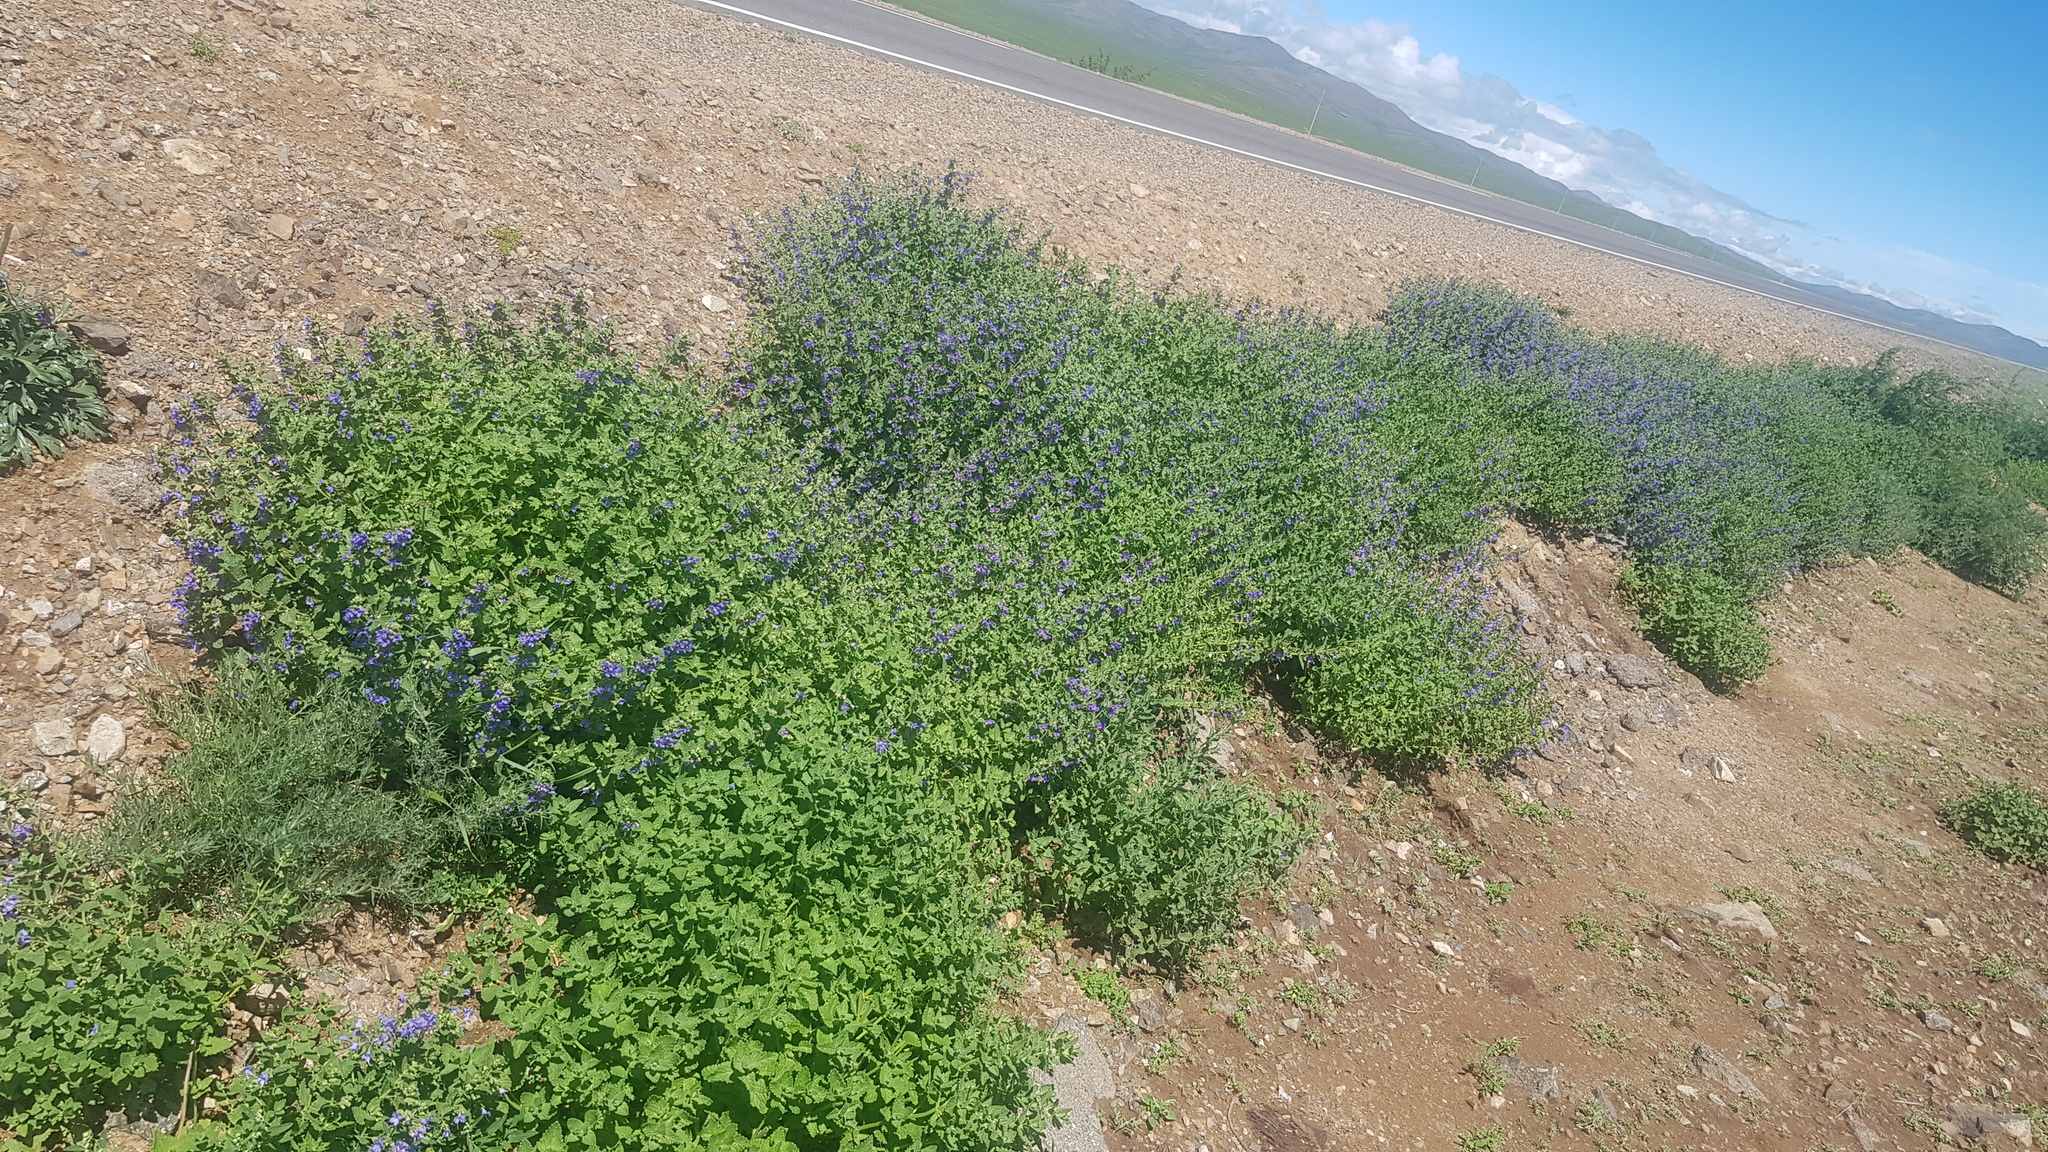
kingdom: Plantae
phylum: Tracheophyta
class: Magnoliopsida
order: Lamiales
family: Lamiaceae
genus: Nepeta
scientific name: Nepeta lophanthus
